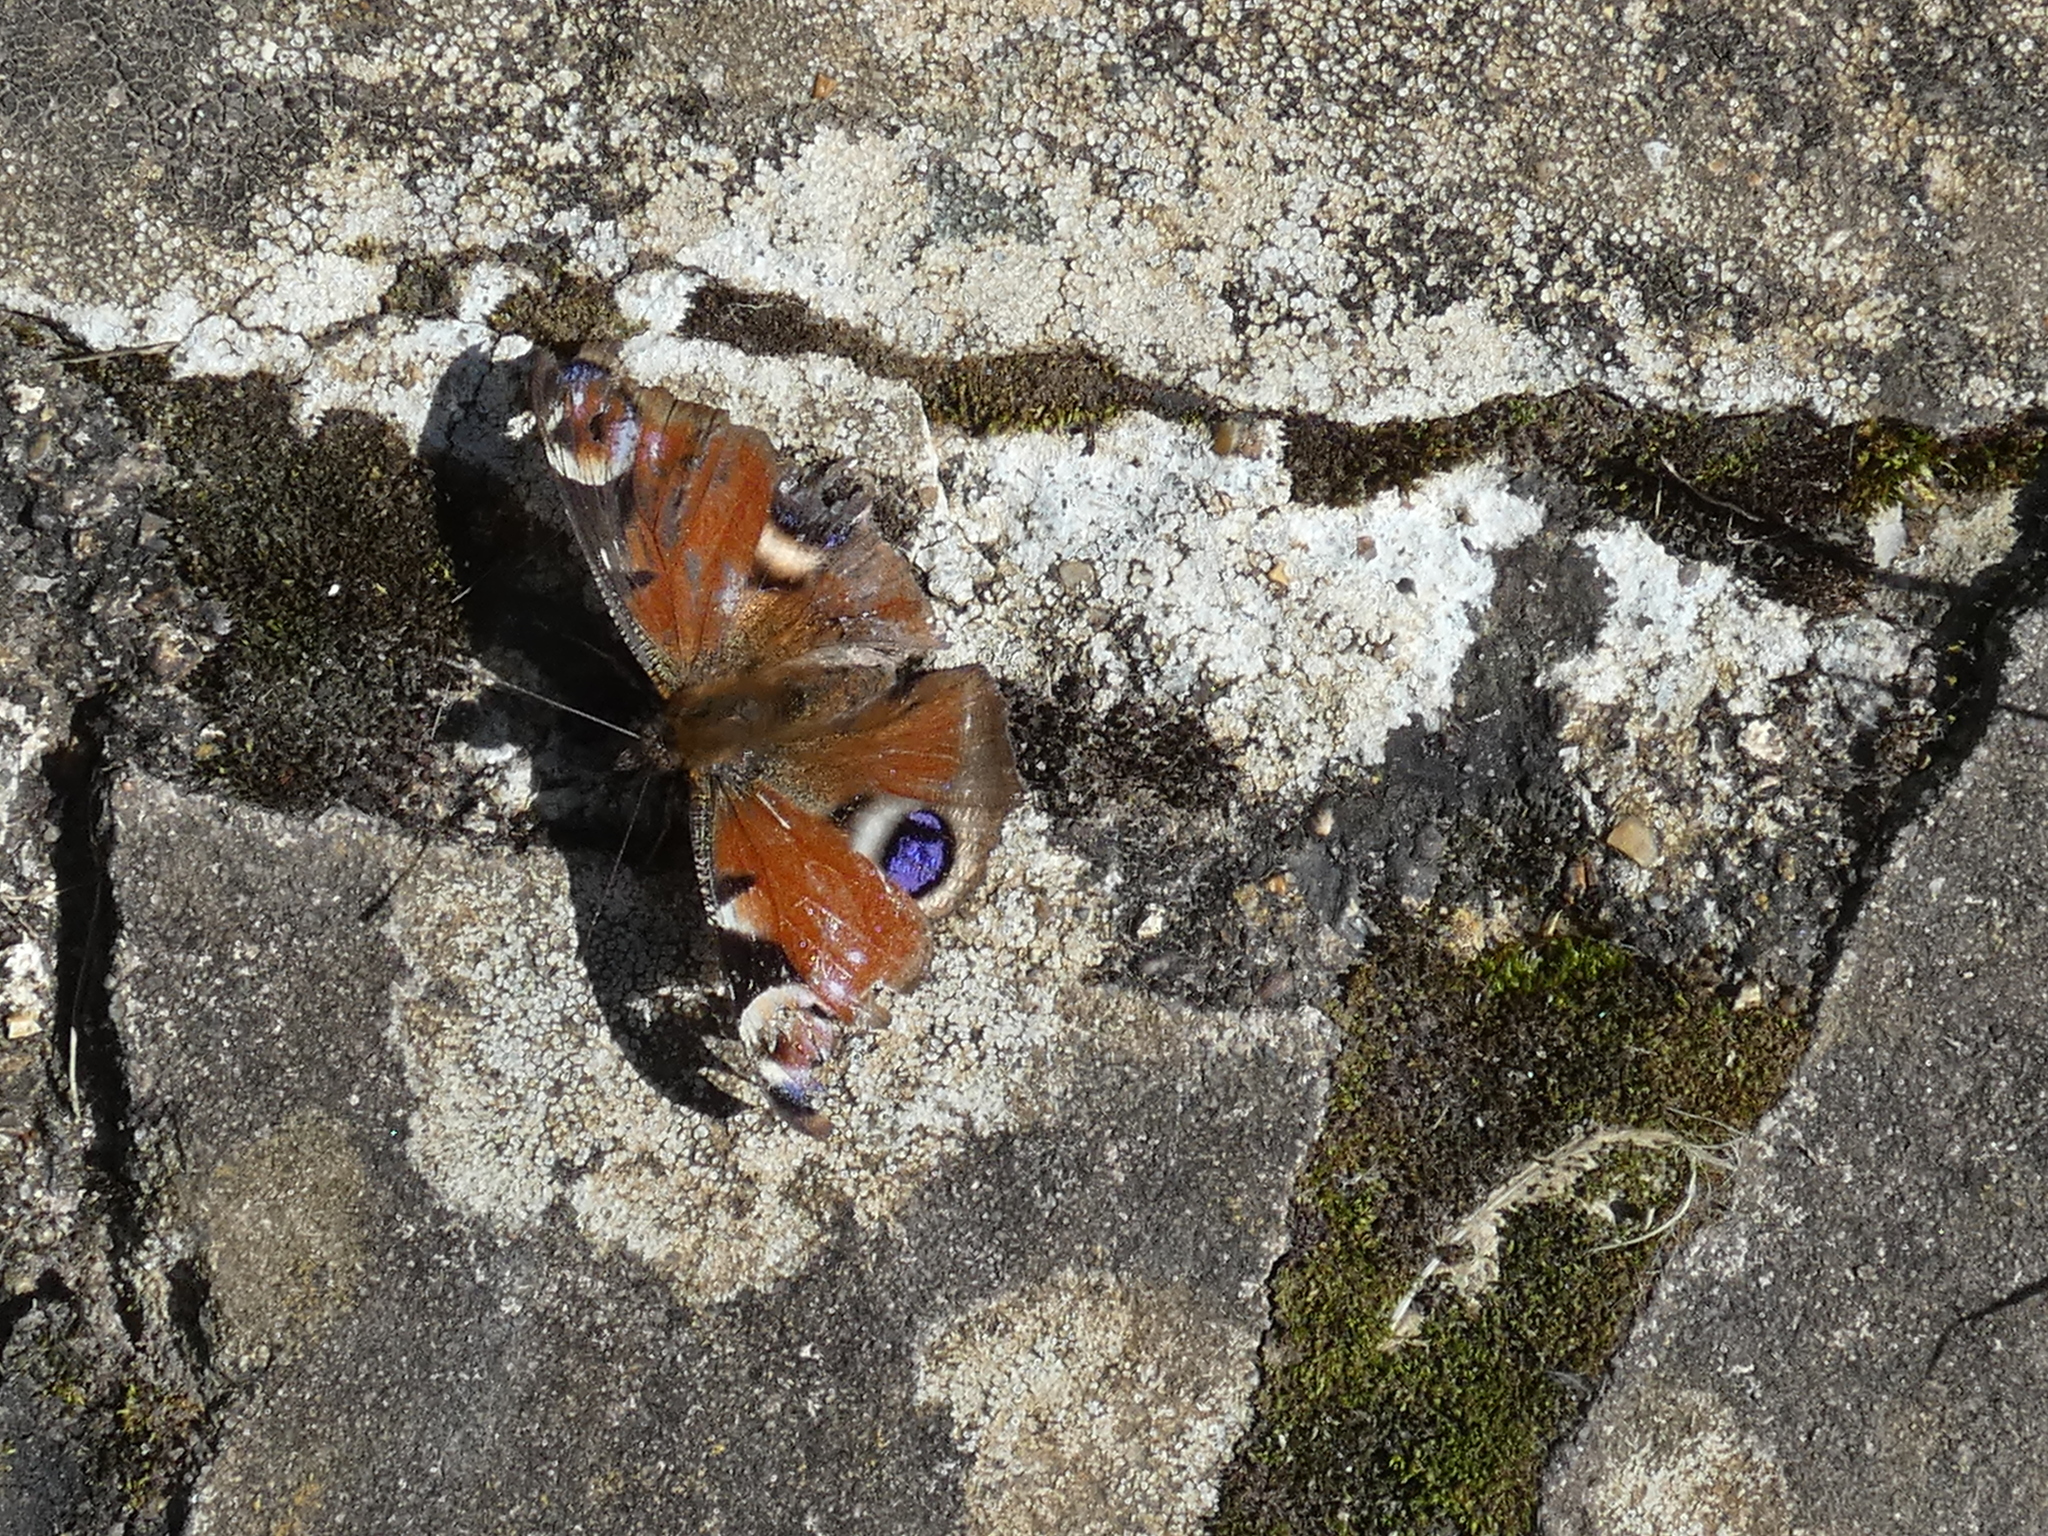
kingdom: Animalia
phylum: Arthropoda
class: Insecta
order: Lepidoptera
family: Nymphalidae
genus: Aglais
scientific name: Aglais io
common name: Peacock
